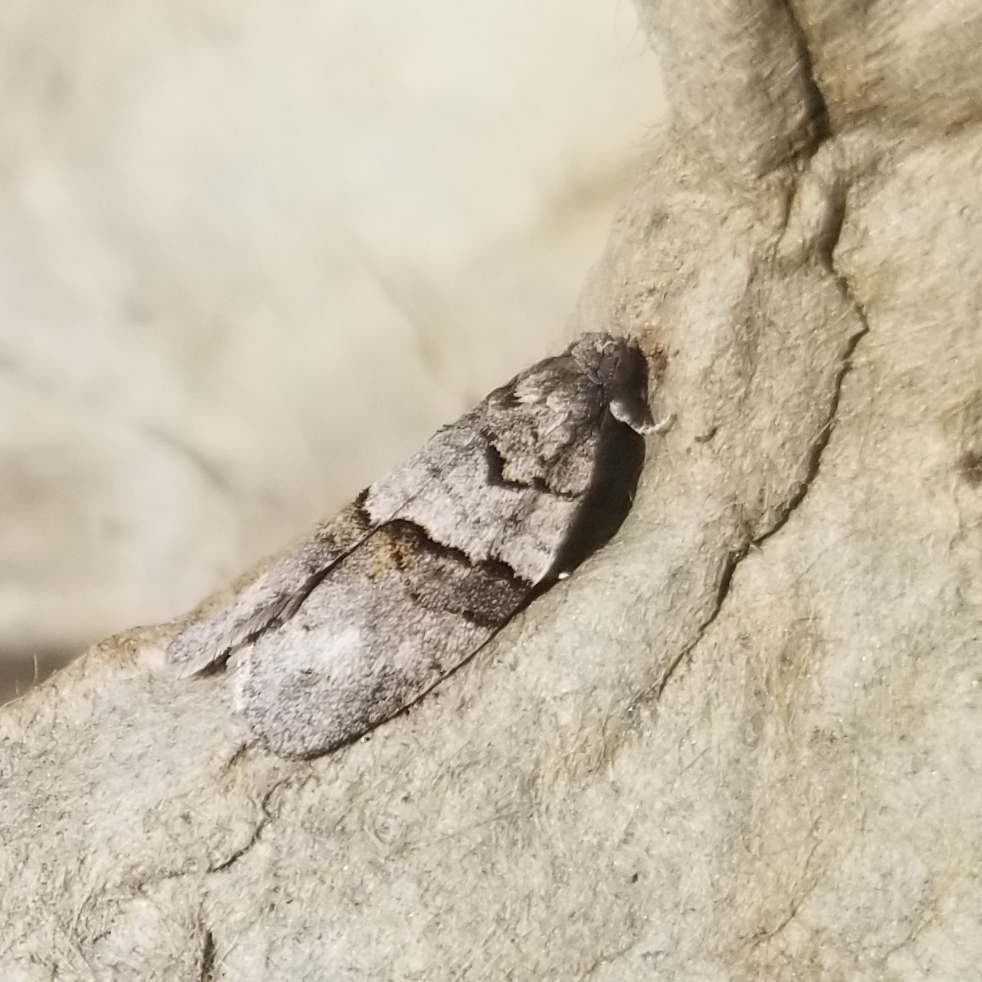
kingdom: Animalia
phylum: Arthropoda
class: Insecta
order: Lepidoptera
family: Tortricidae
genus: Syndemis
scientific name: Syndemis afflictana
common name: Gray leafroller moth
